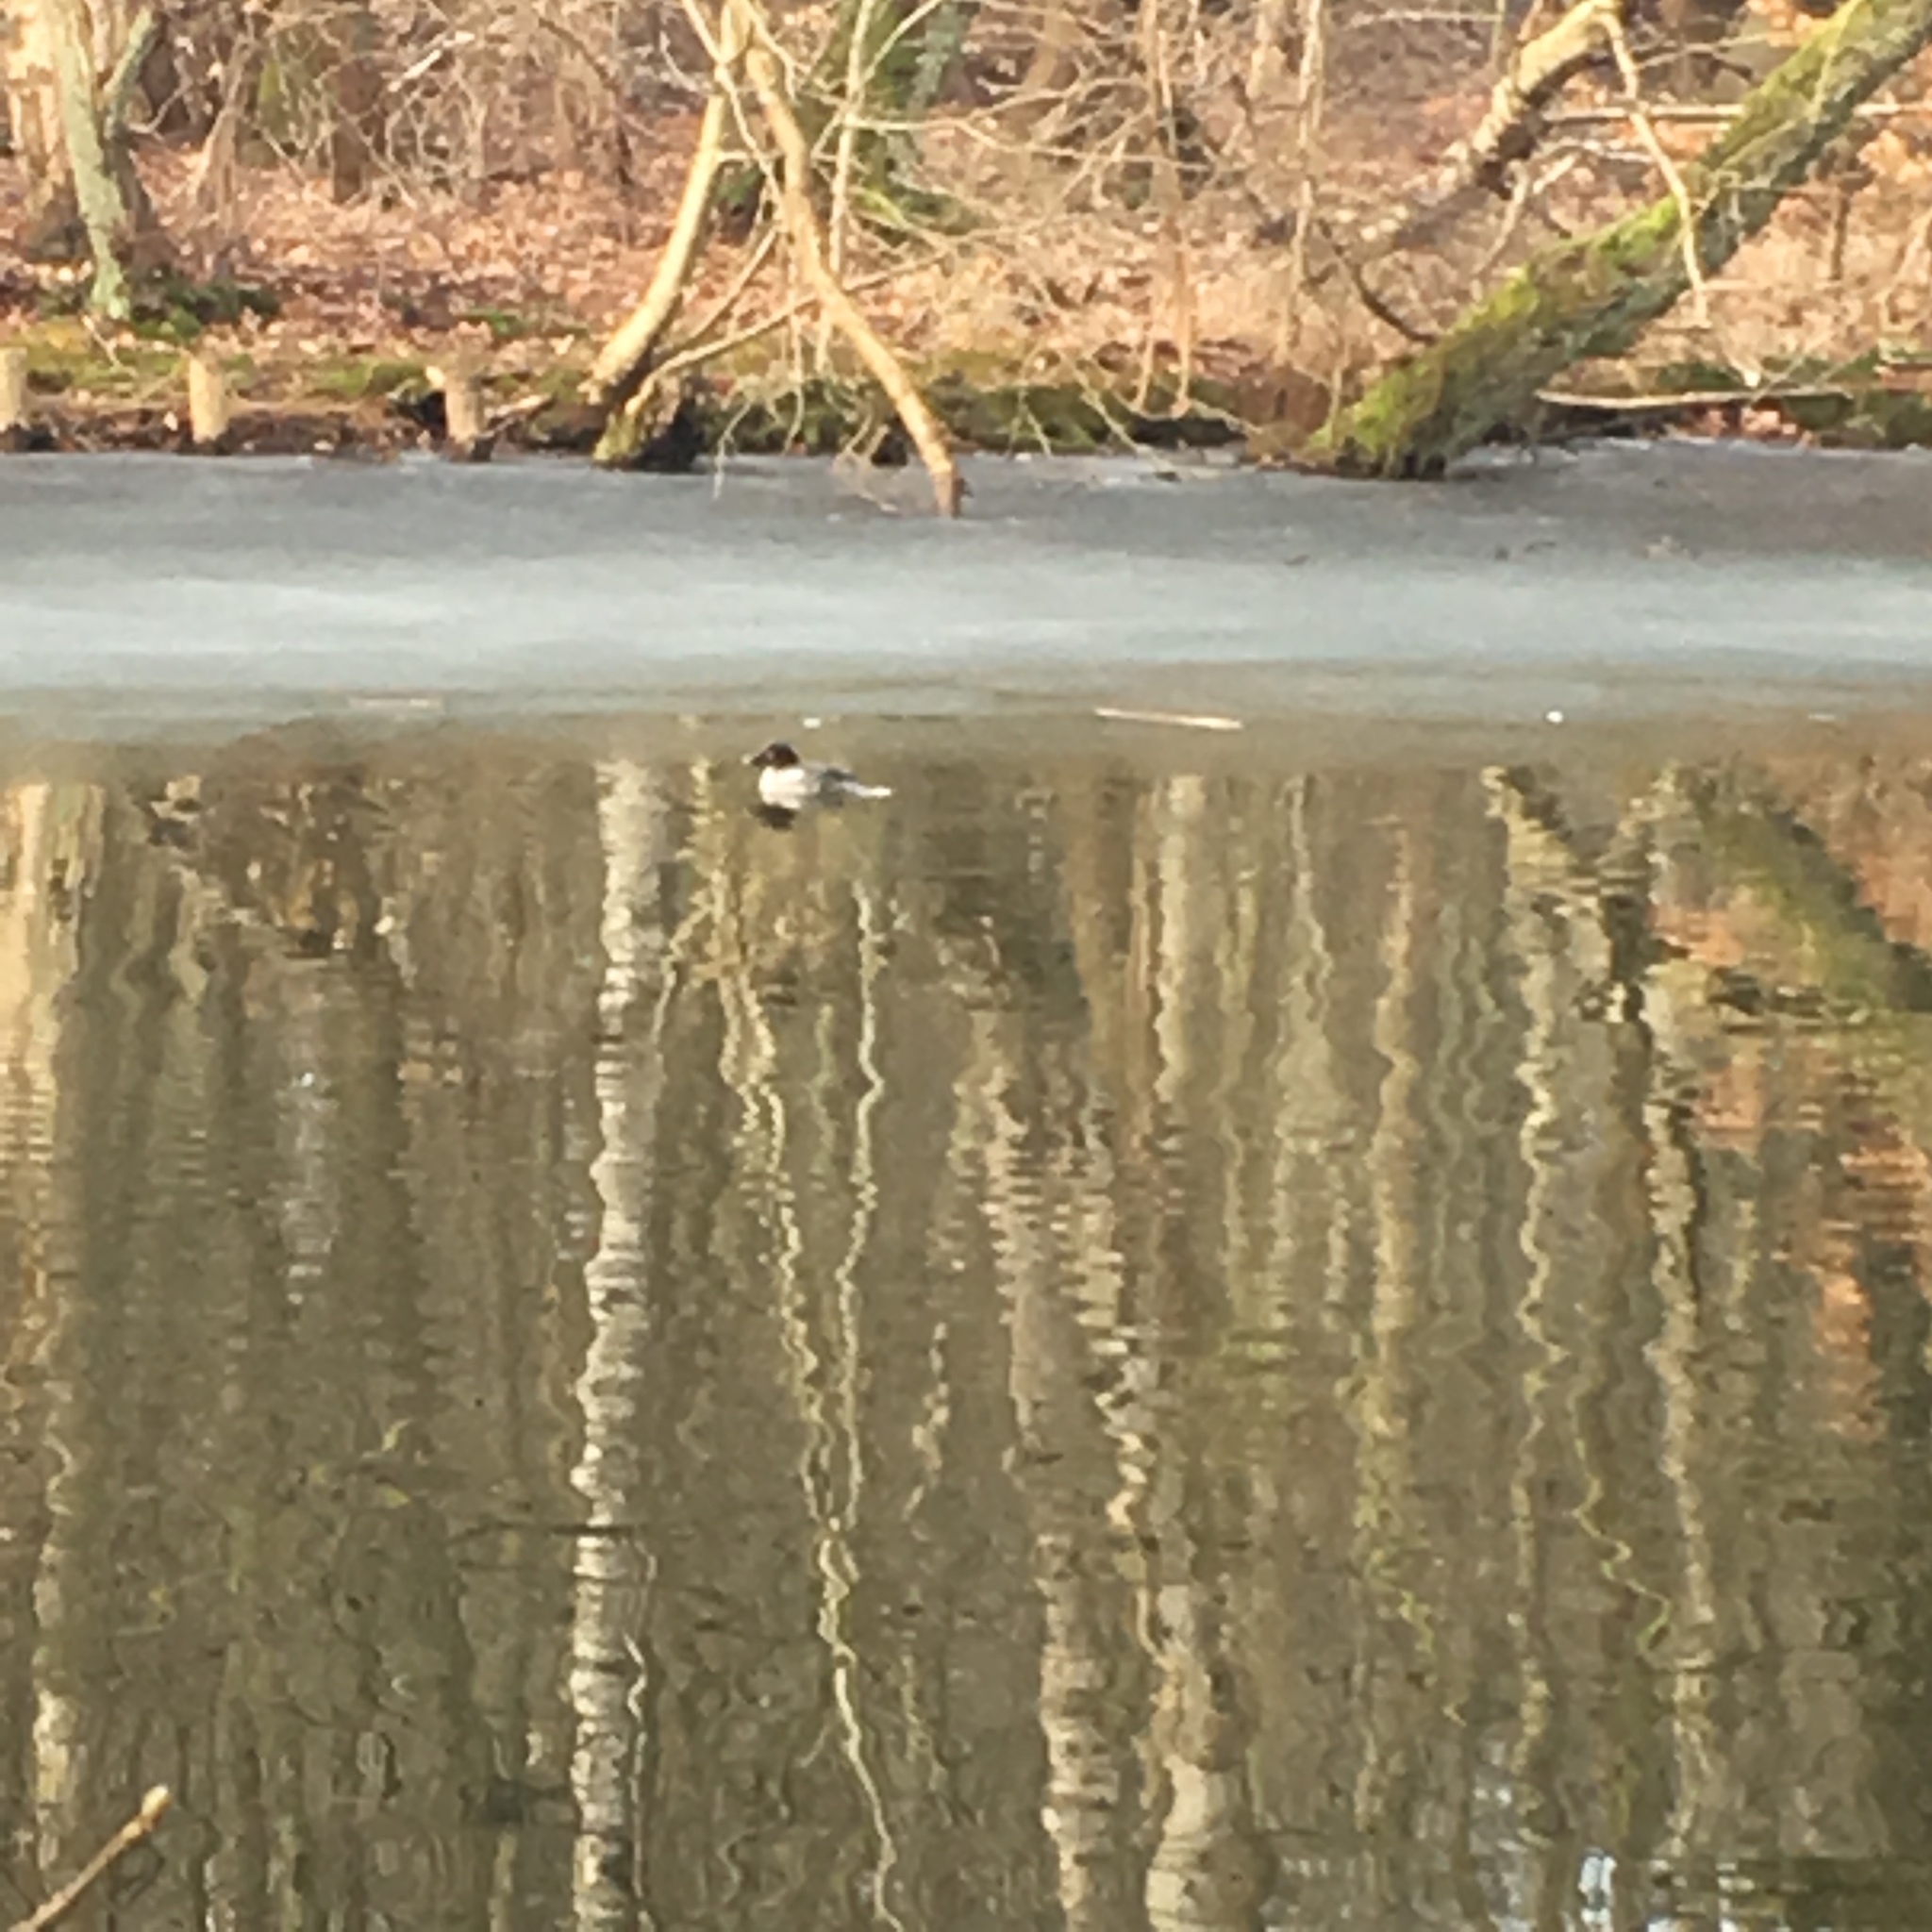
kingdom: Animalia
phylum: Chordata
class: Aves
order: Anseriformes
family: Anatidae
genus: Bucephala
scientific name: Bucephala clangula
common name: Common goldeneye
